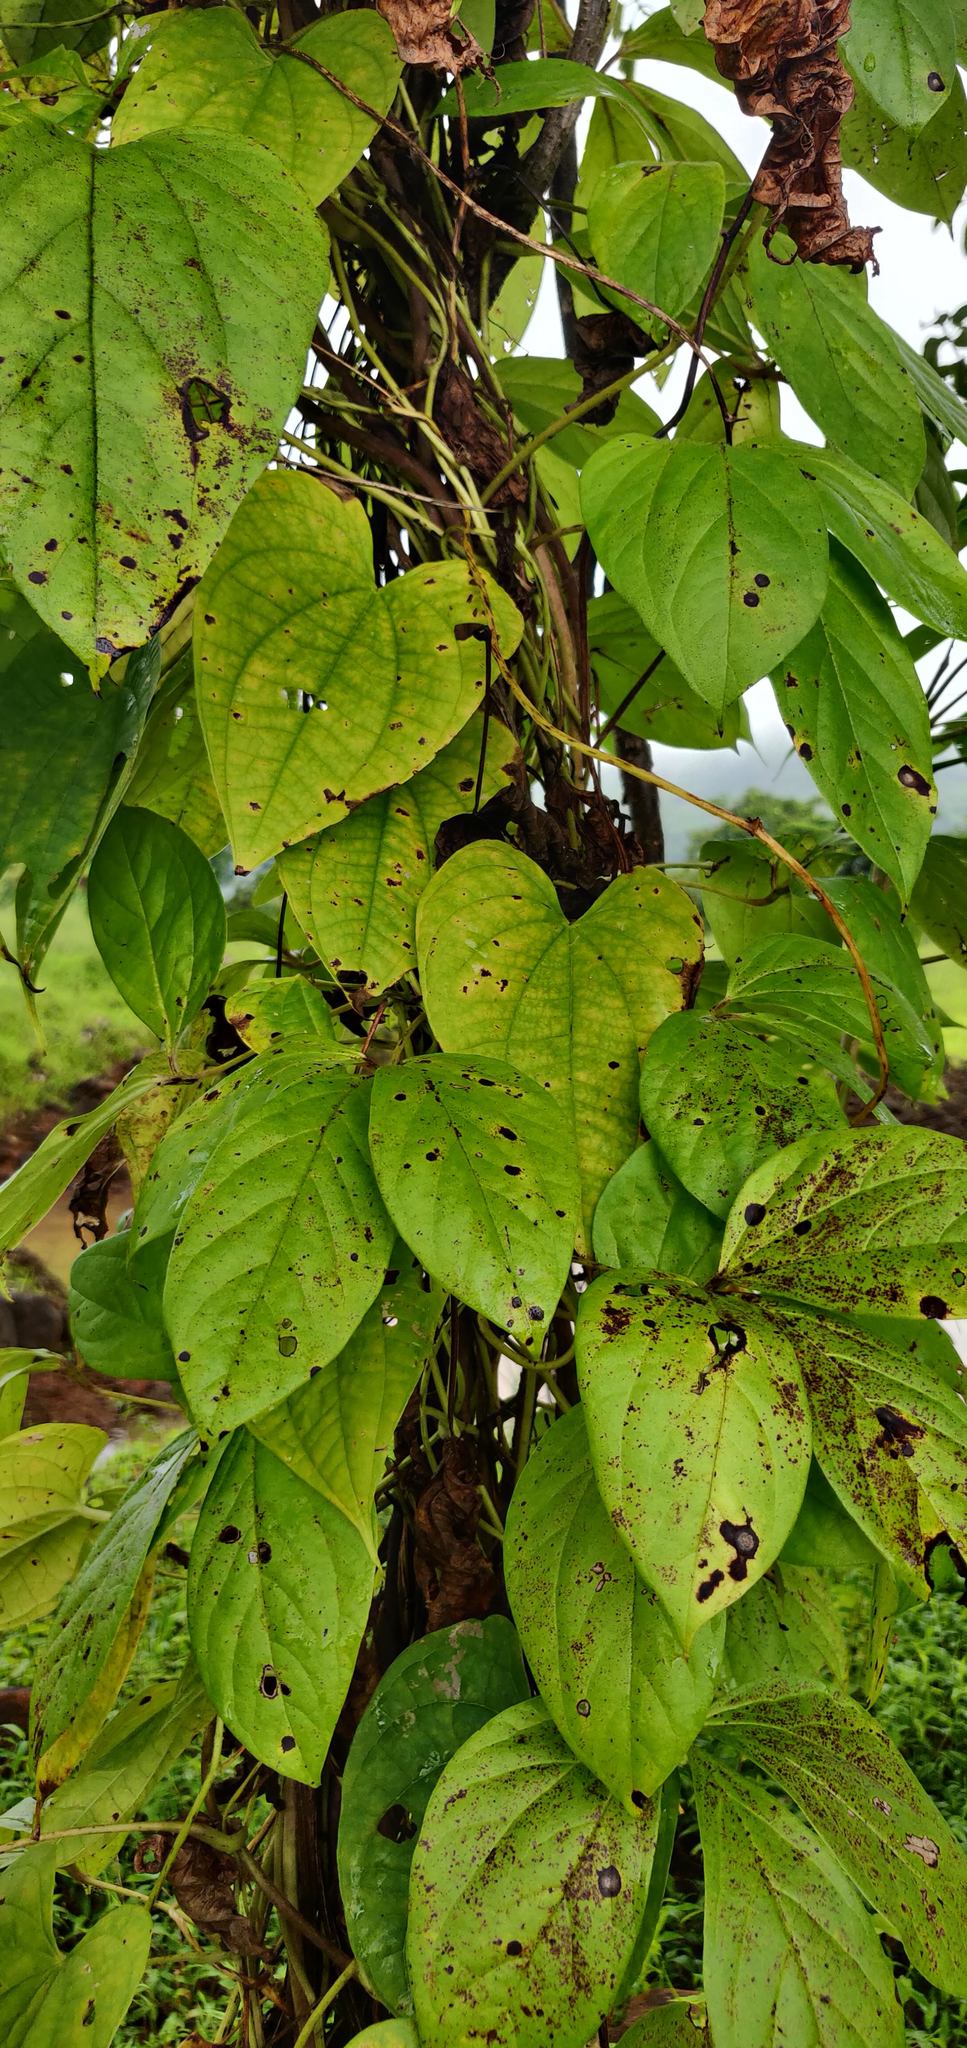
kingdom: Plantae
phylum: Tracheophyta
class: Liliopsida
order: Dioscoreales
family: Dioscoreaceae
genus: Dioscorea
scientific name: Dioscorea bulbifera
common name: Air yam
